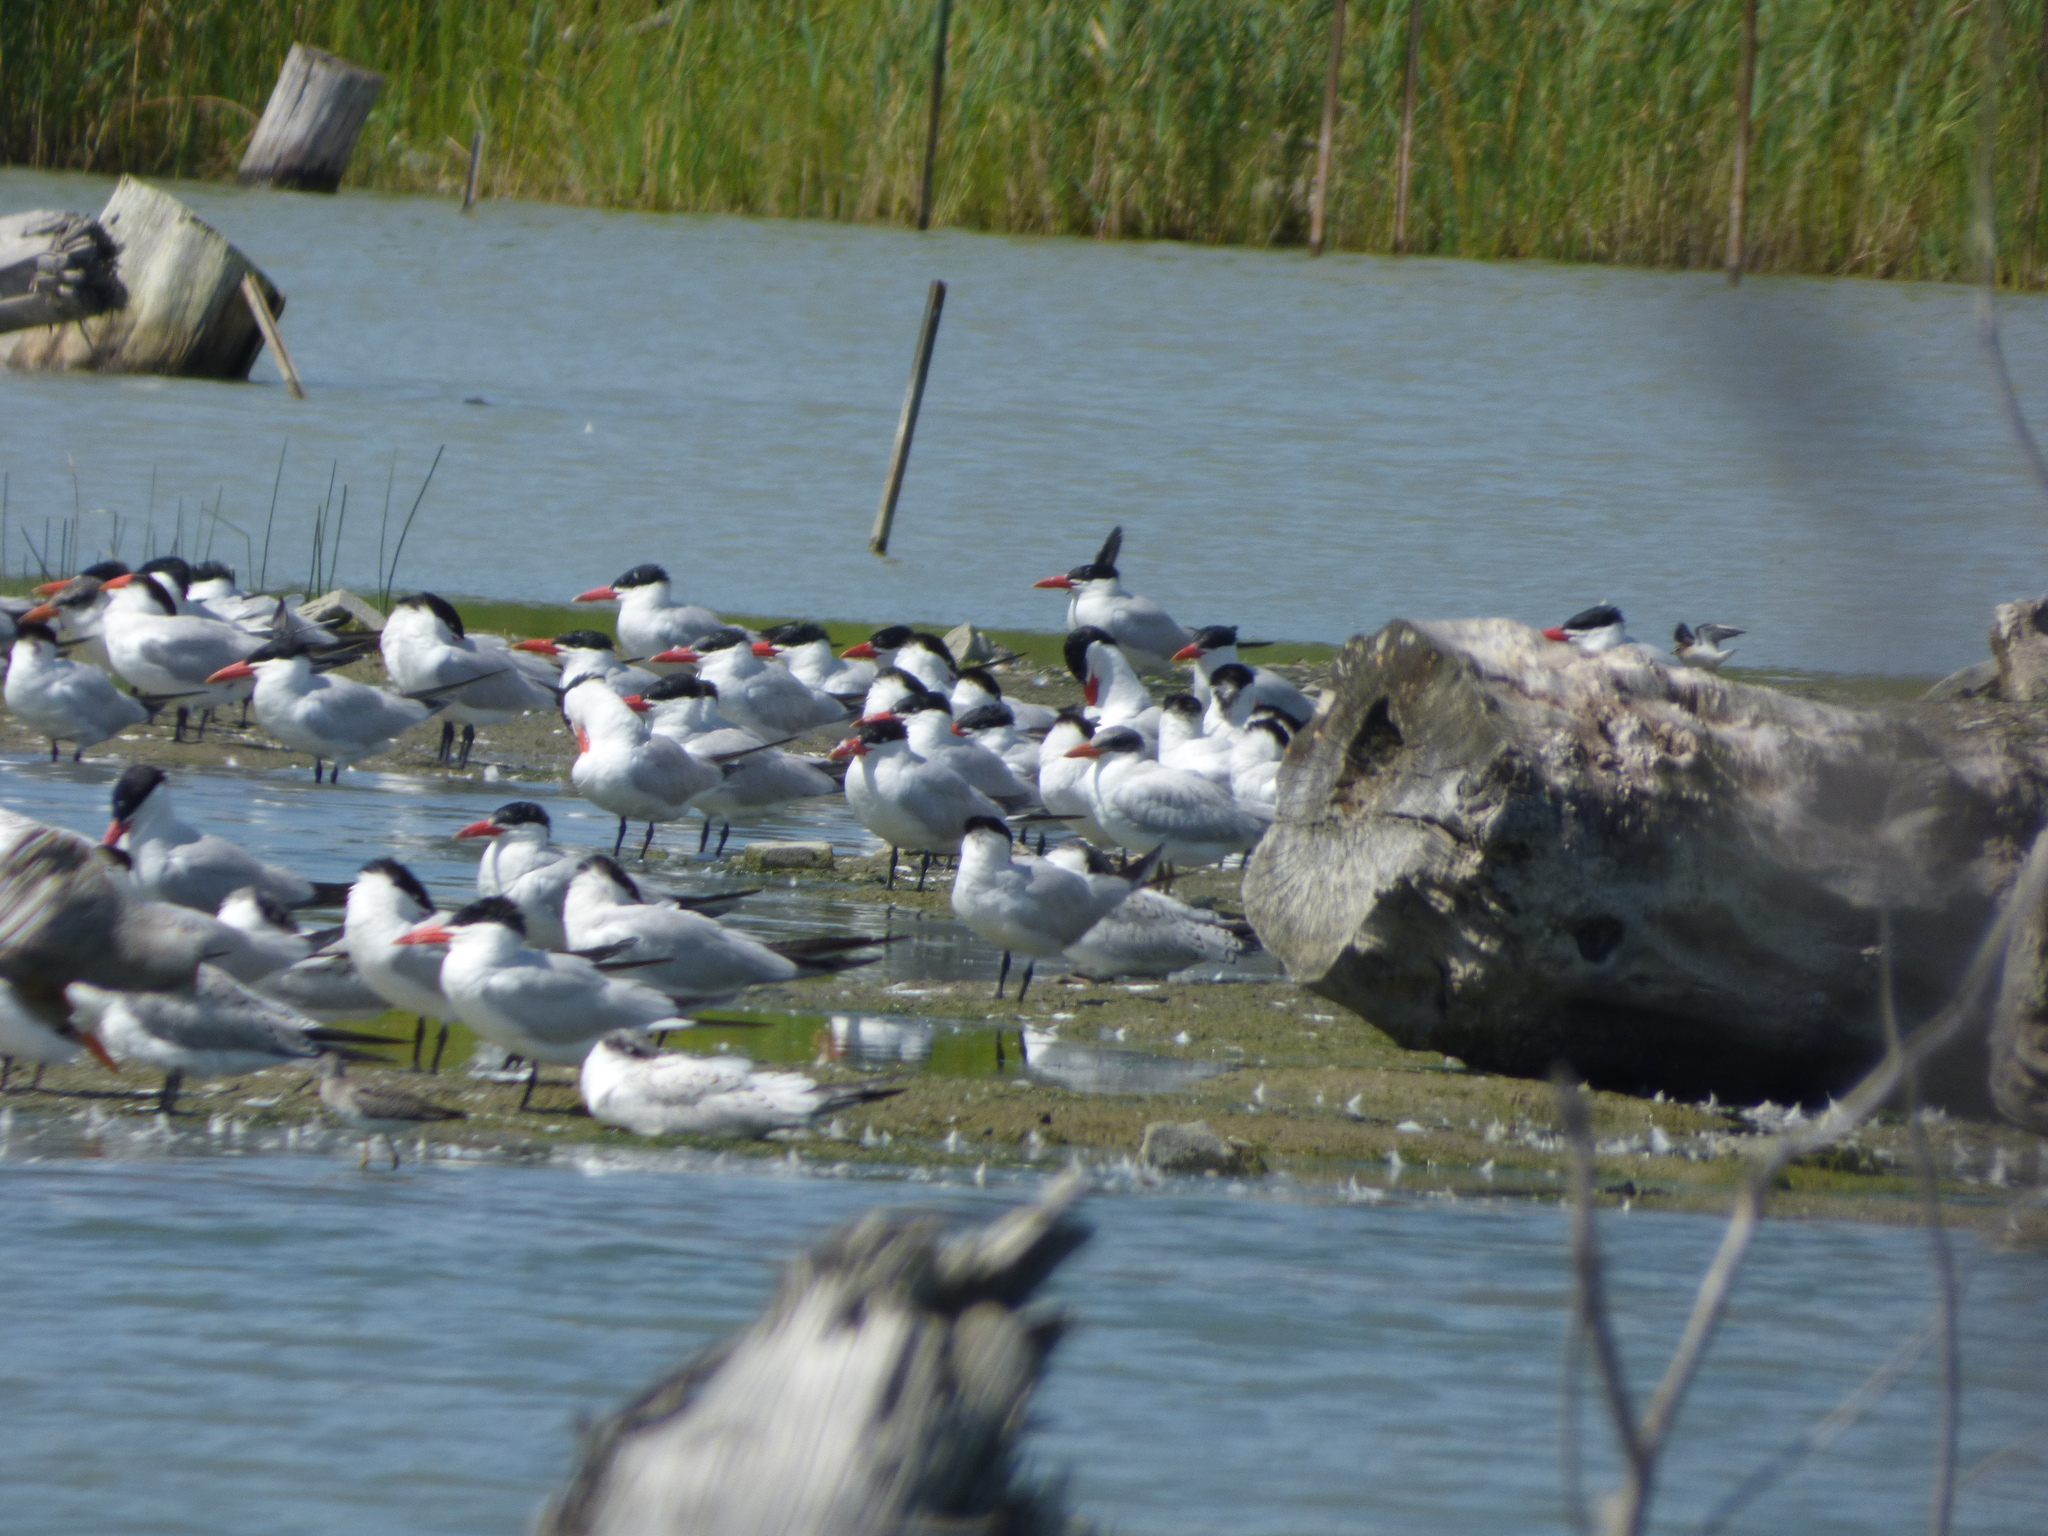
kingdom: Animalia
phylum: Chordata
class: Aves
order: Charadriiformes
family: Laridae
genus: Hydroprogne
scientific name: Hydroprogne caspia
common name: Caspian tern
